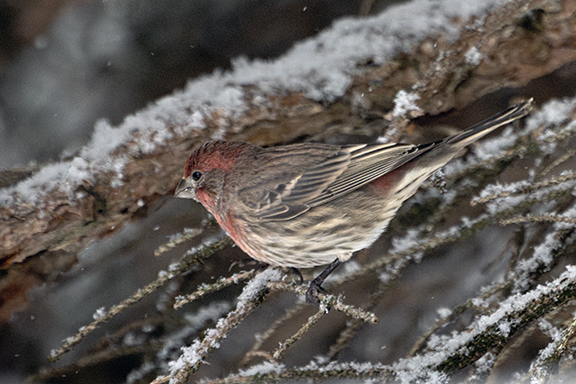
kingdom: Animalia
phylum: Chordata
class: Aves
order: Passeriformes
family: Fringillidae
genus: Haemorhous
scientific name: Haemorhous mexicanus
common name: House finch
